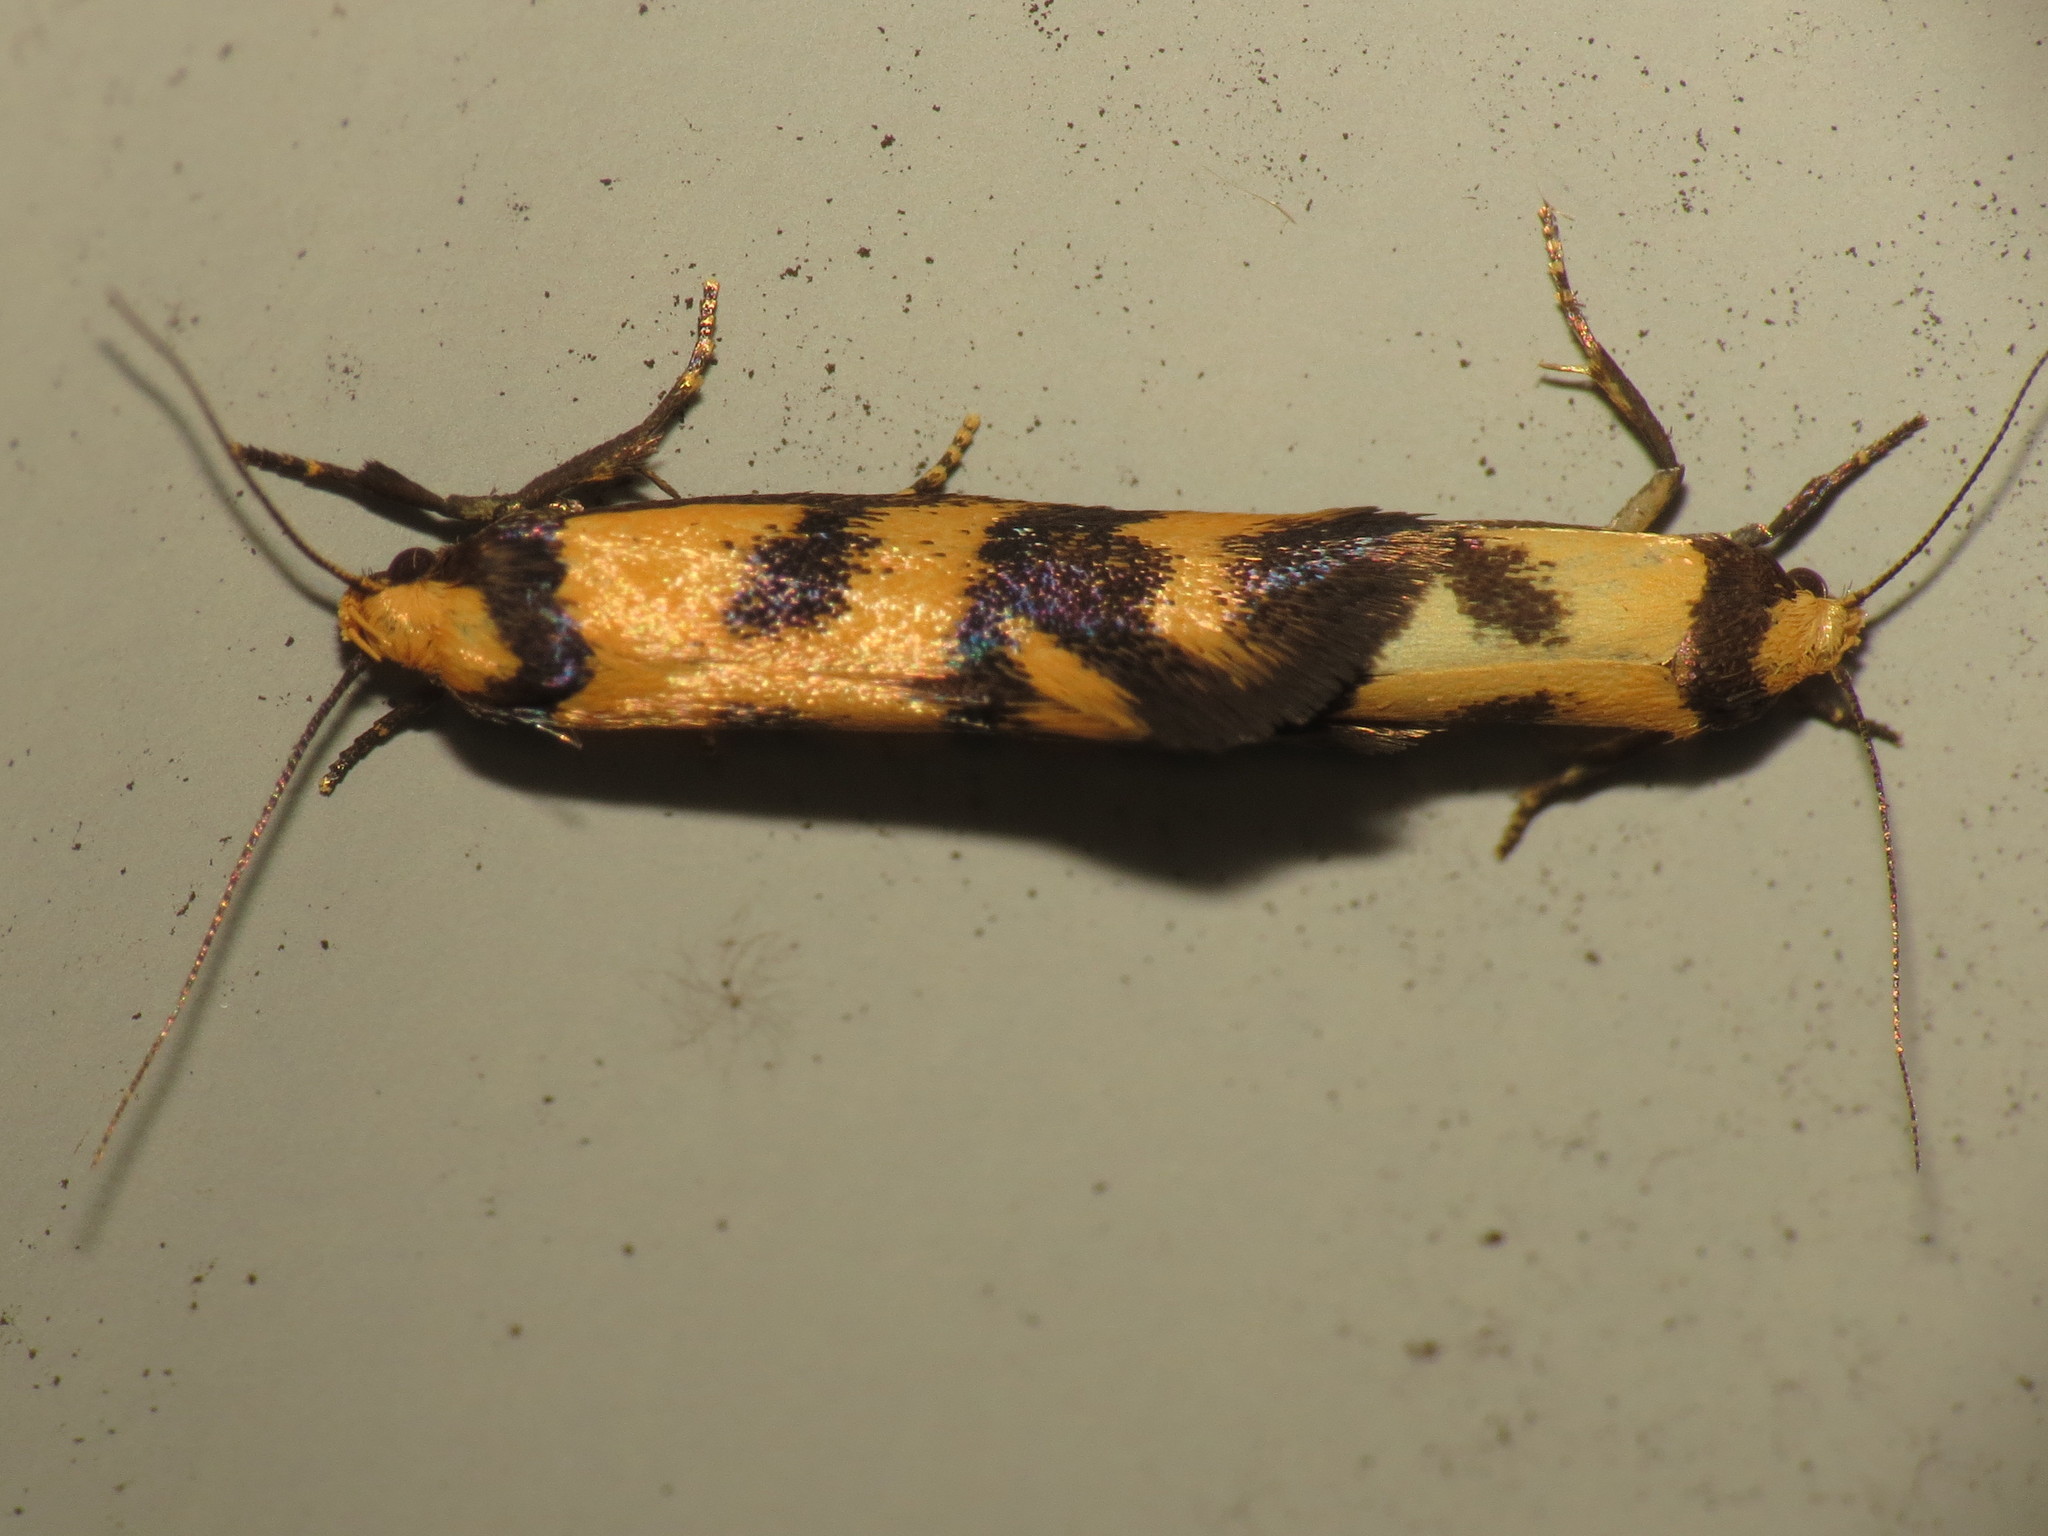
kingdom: Animalia
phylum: Arthropoda
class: Insecta
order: Lepidoptera
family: Oecophoridae
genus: Olbonoma
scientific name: Olbonoma triptycha
